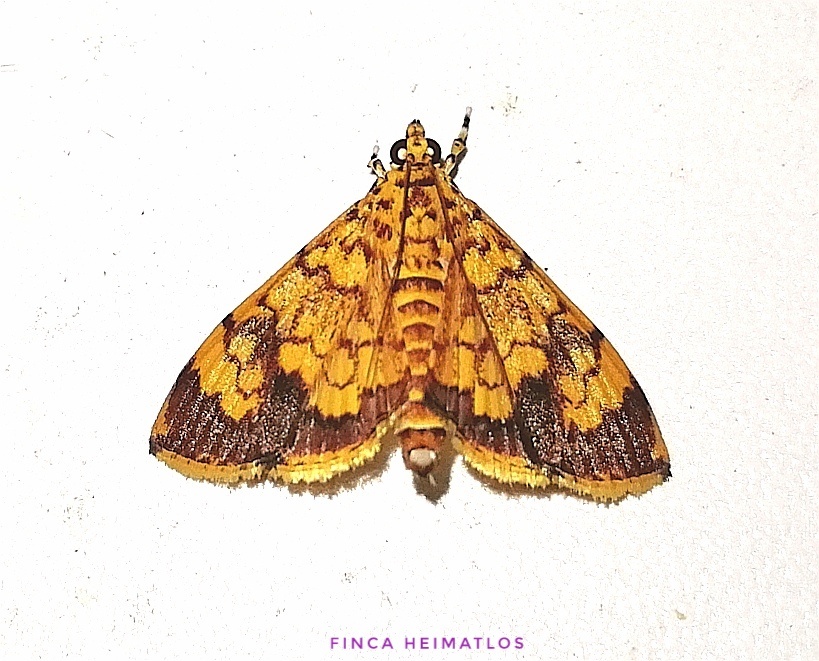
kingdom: Animalia
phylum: Arthropoda
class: Insecta
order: Lepidoptera
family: Crambidae
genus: Portentomorpha
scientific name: Portentomorpha xanthialis
